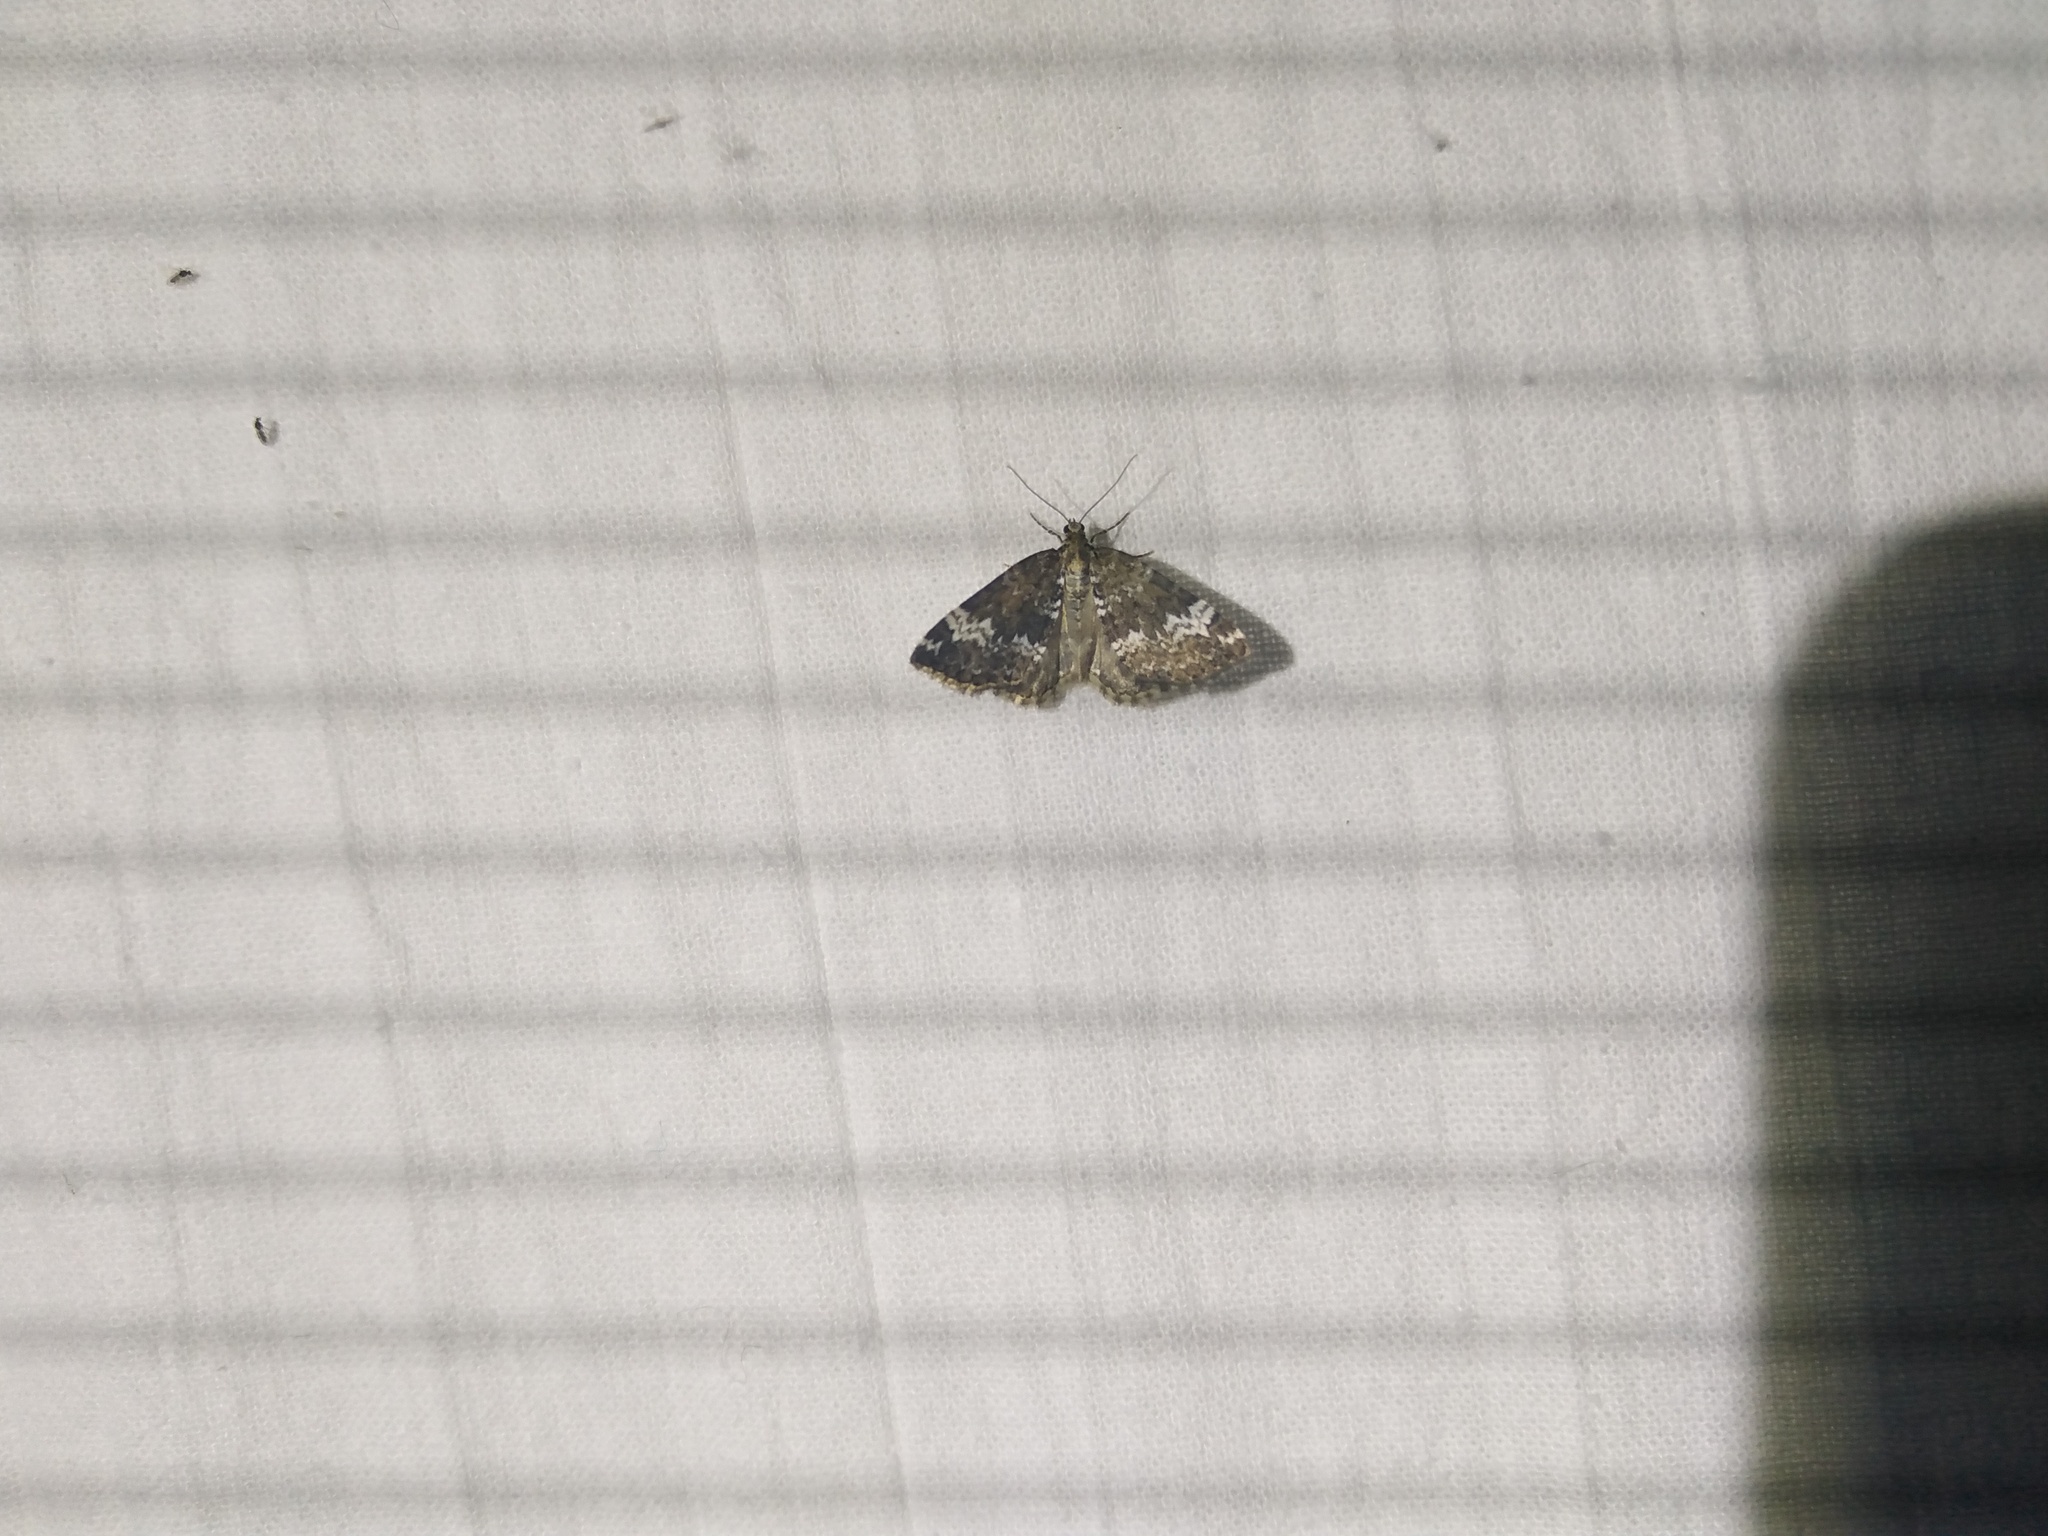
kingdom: Animalia
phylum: Arthropoda
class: Insecta
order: Lepidoptera
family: Geometridae
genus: Perizoma
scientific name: Perizoma alchemillata
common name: Small rivulet
